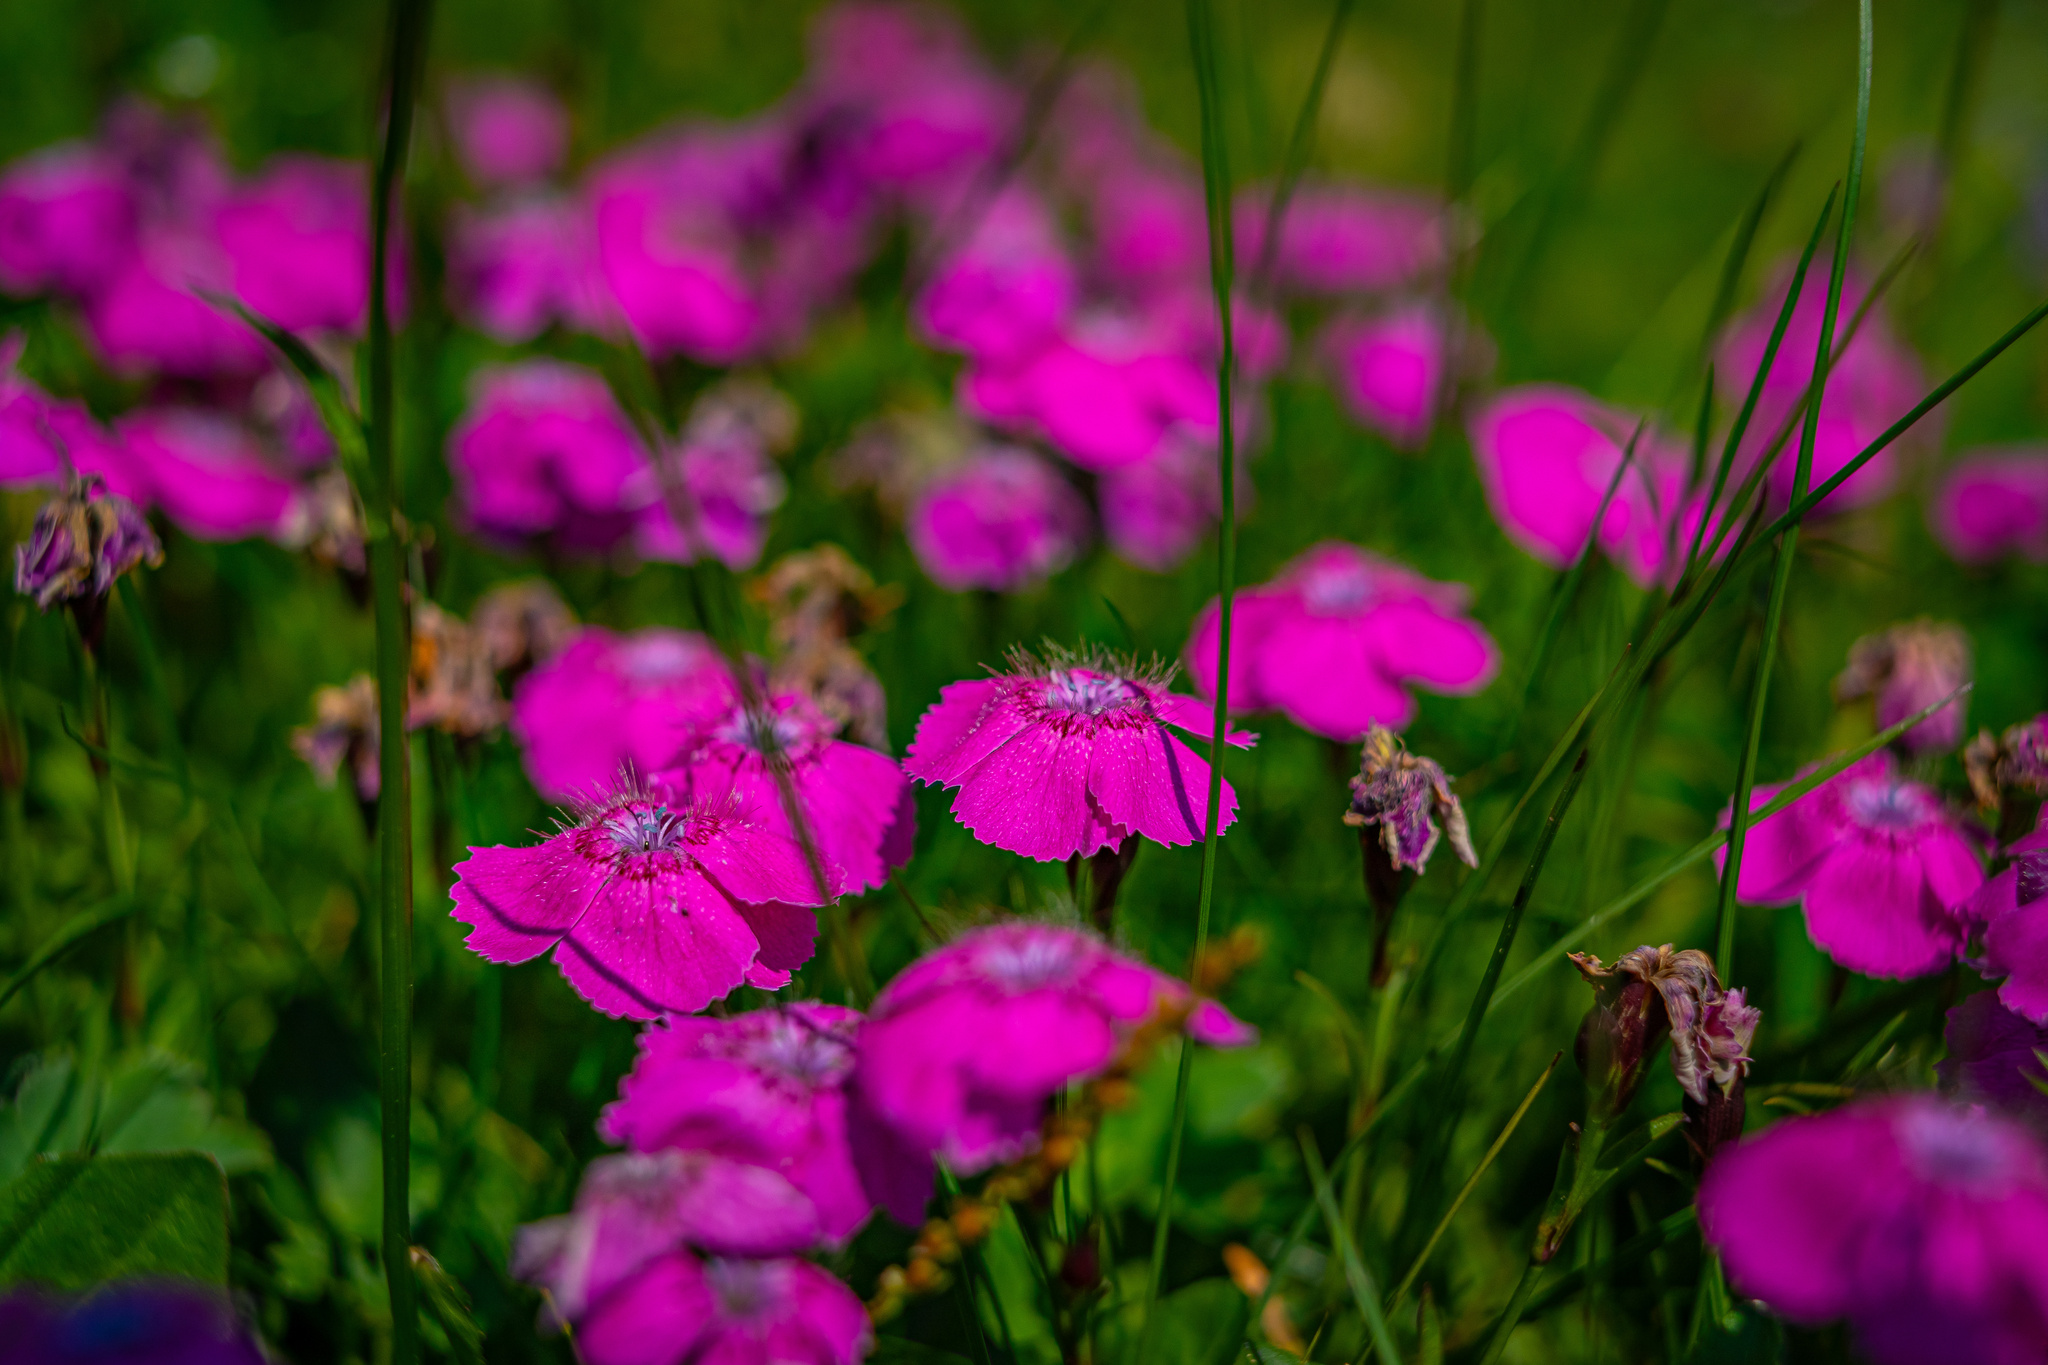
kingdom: Plantae
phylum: Tracheophyta
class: Magnoliopsida
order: Caryophyllales
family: Caryophyllaceae
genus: Dianthus
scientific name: Dianthus alpinus
